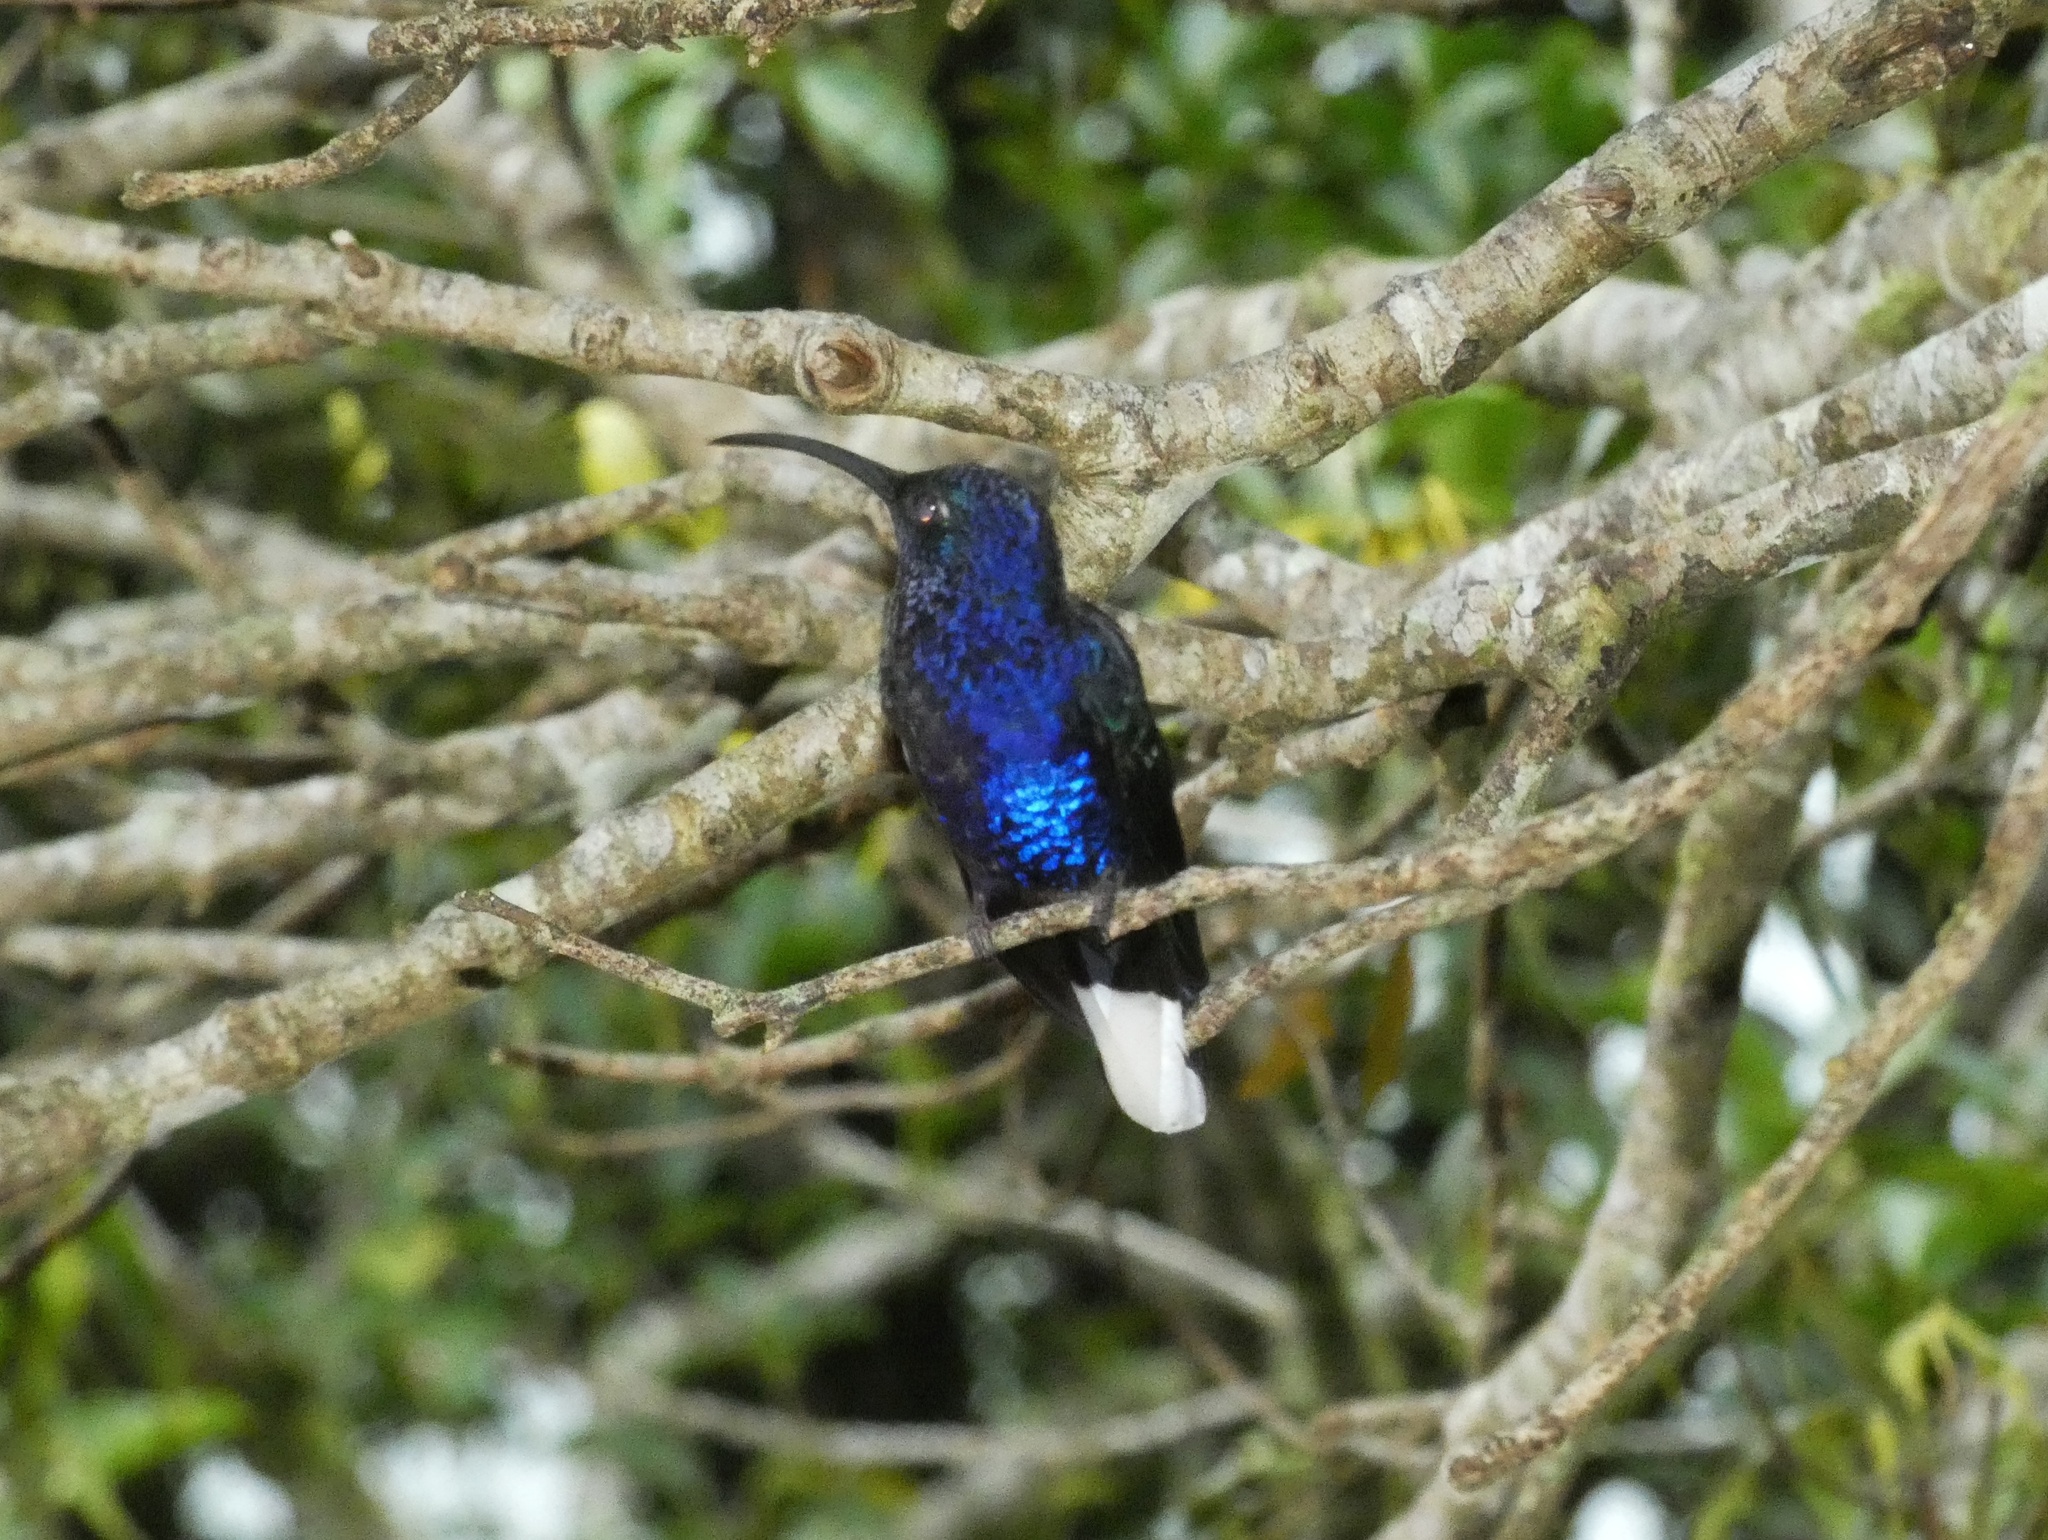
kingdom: Animalia
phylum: Chordata
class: Aves
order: Apodiformes
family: Trochilidae
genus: Campylopterus
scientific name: Campylopterus hemileucurus
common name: Violet sabrewing
